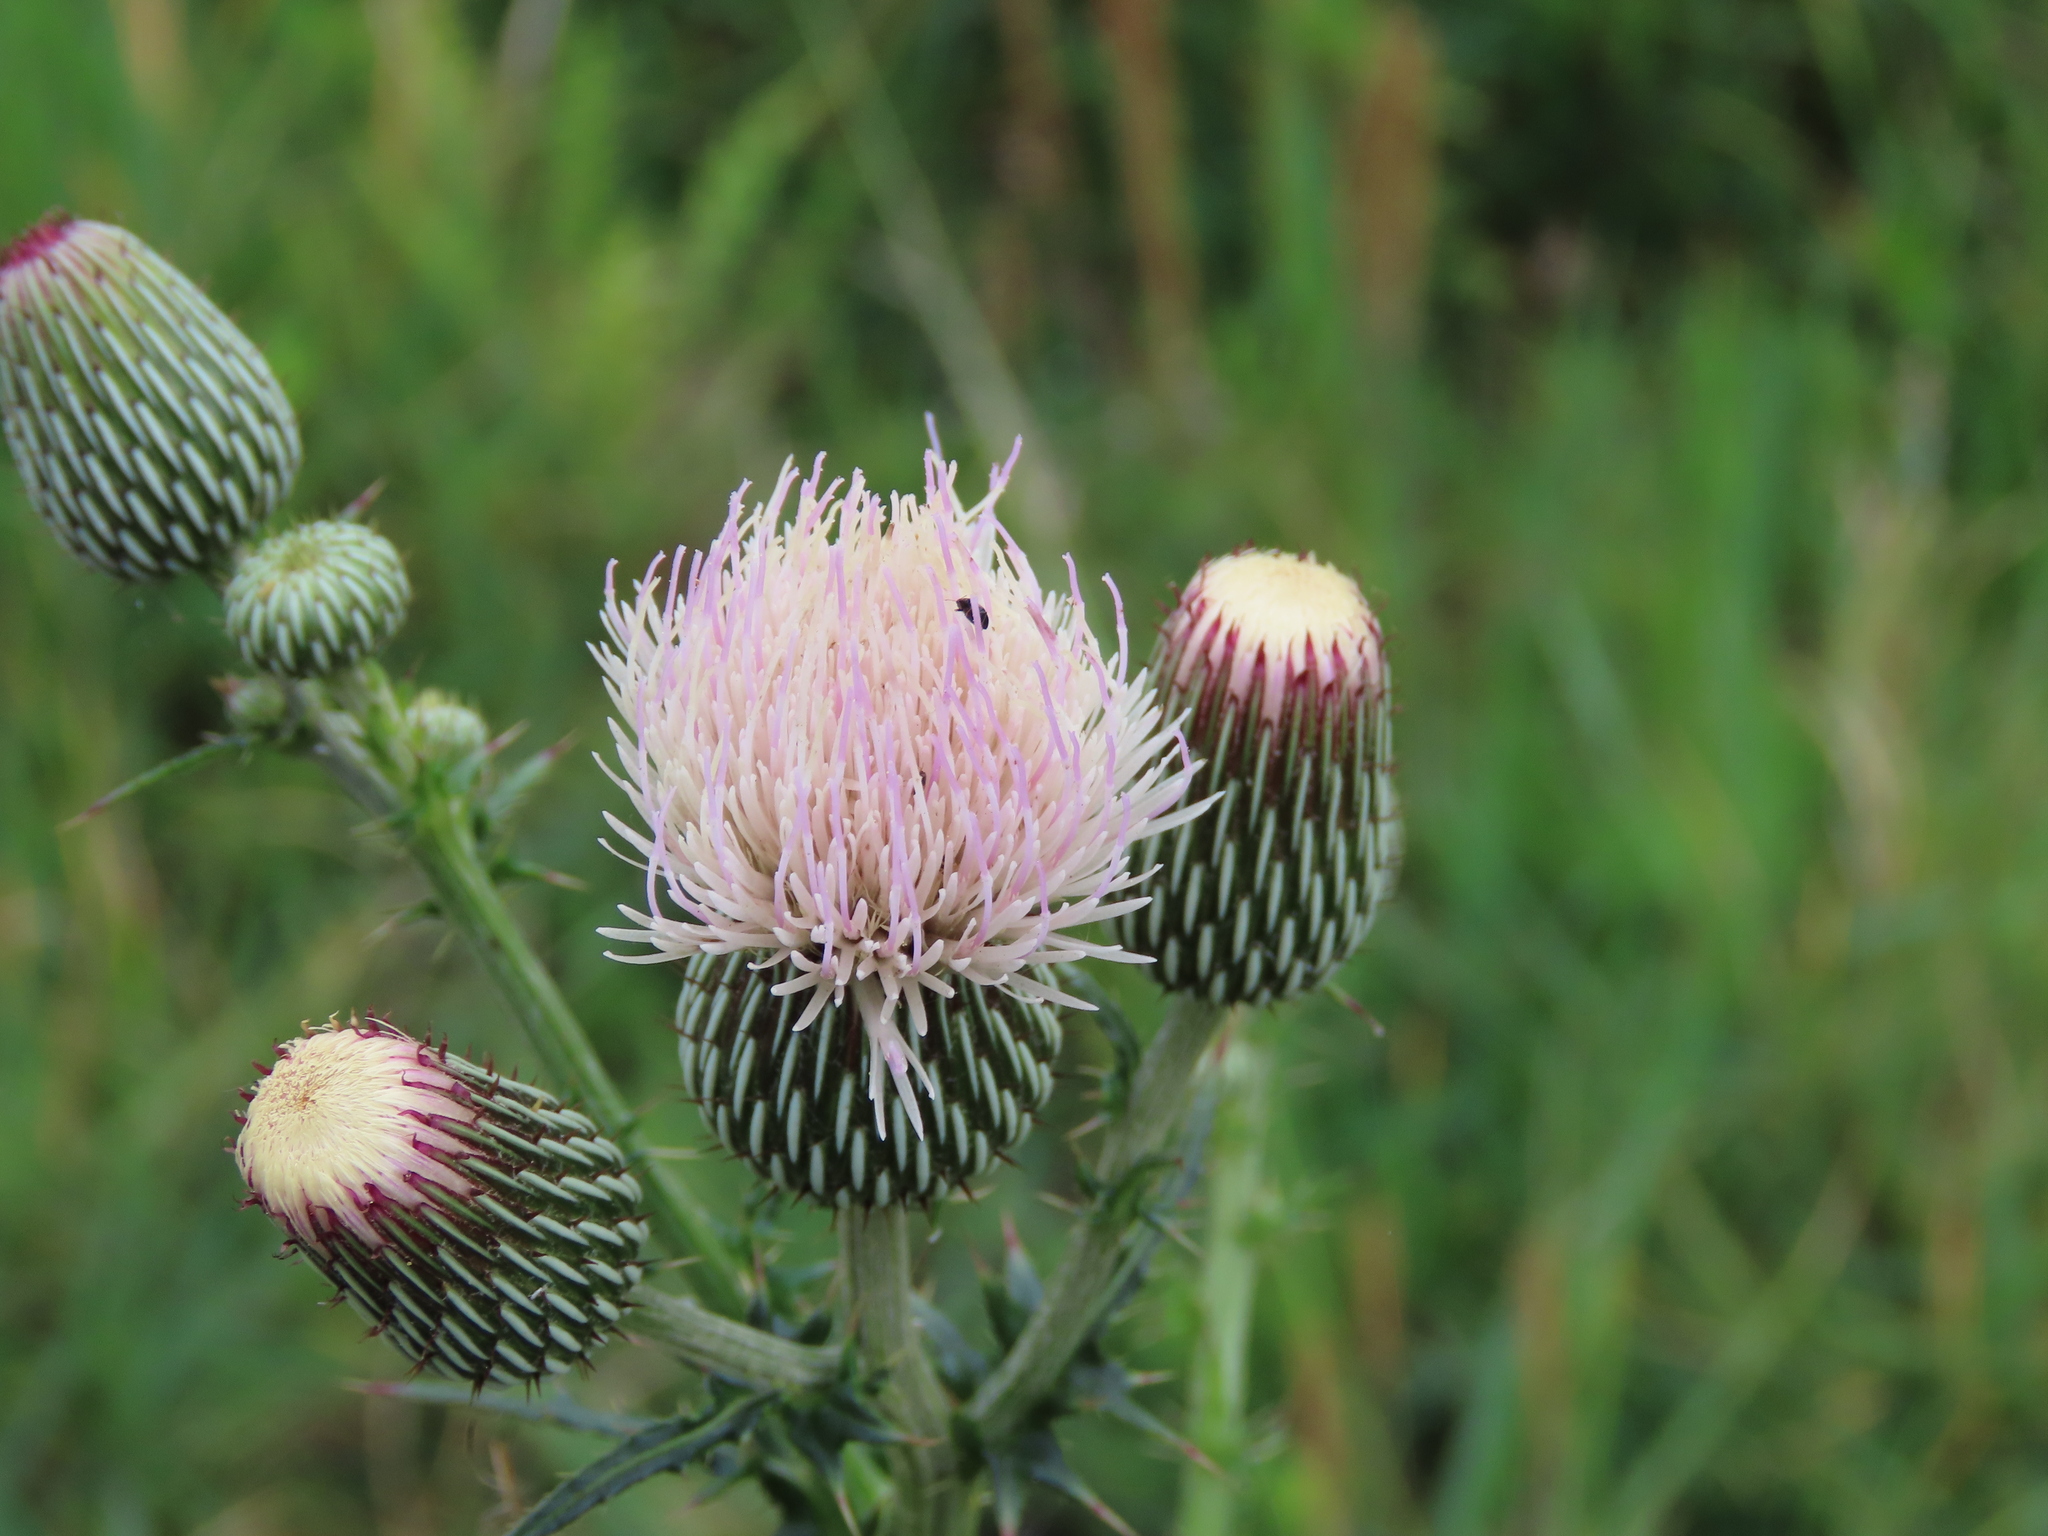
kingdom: Plantae
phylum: Tracheophyta
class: Magnoliopsida
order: Asterales
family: Asteraceae
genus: Cirsium
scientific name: Cirsium nuttalii
